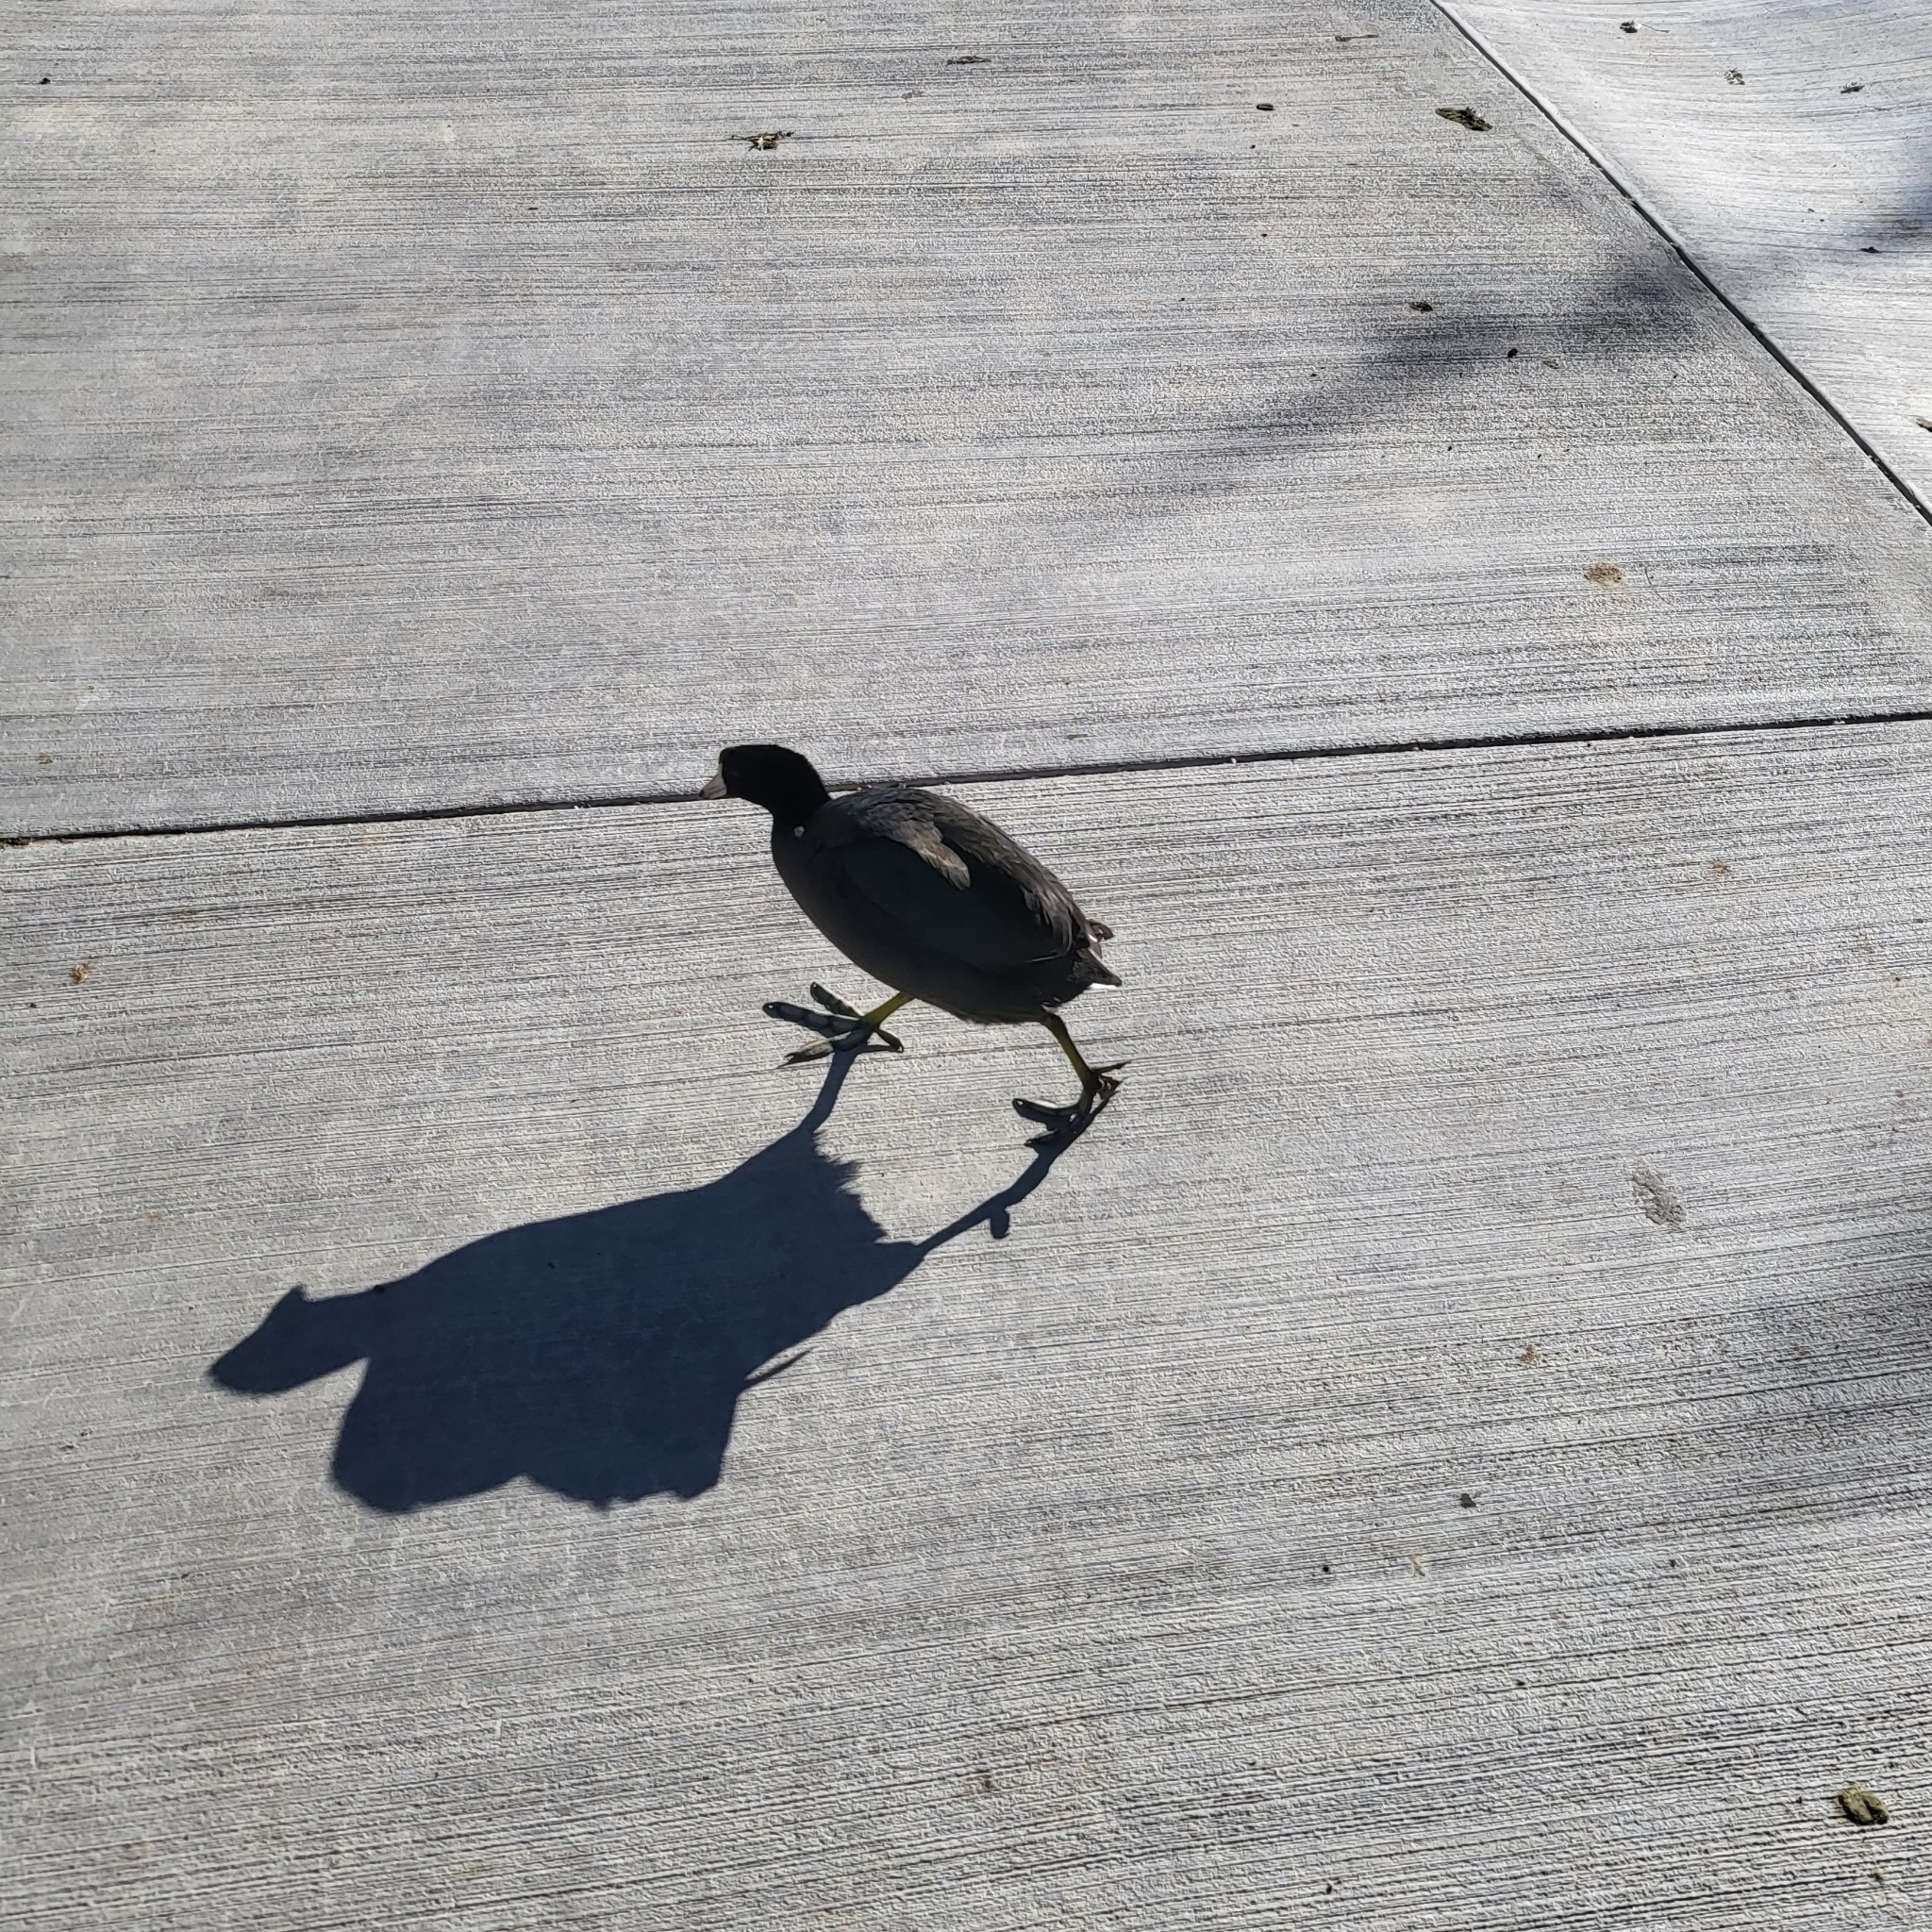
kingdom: Animalia
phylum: Chordata
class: Aves
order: Gruiformes
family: Rallidae
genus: Fulica
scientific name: Fulica americana
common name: American coot
